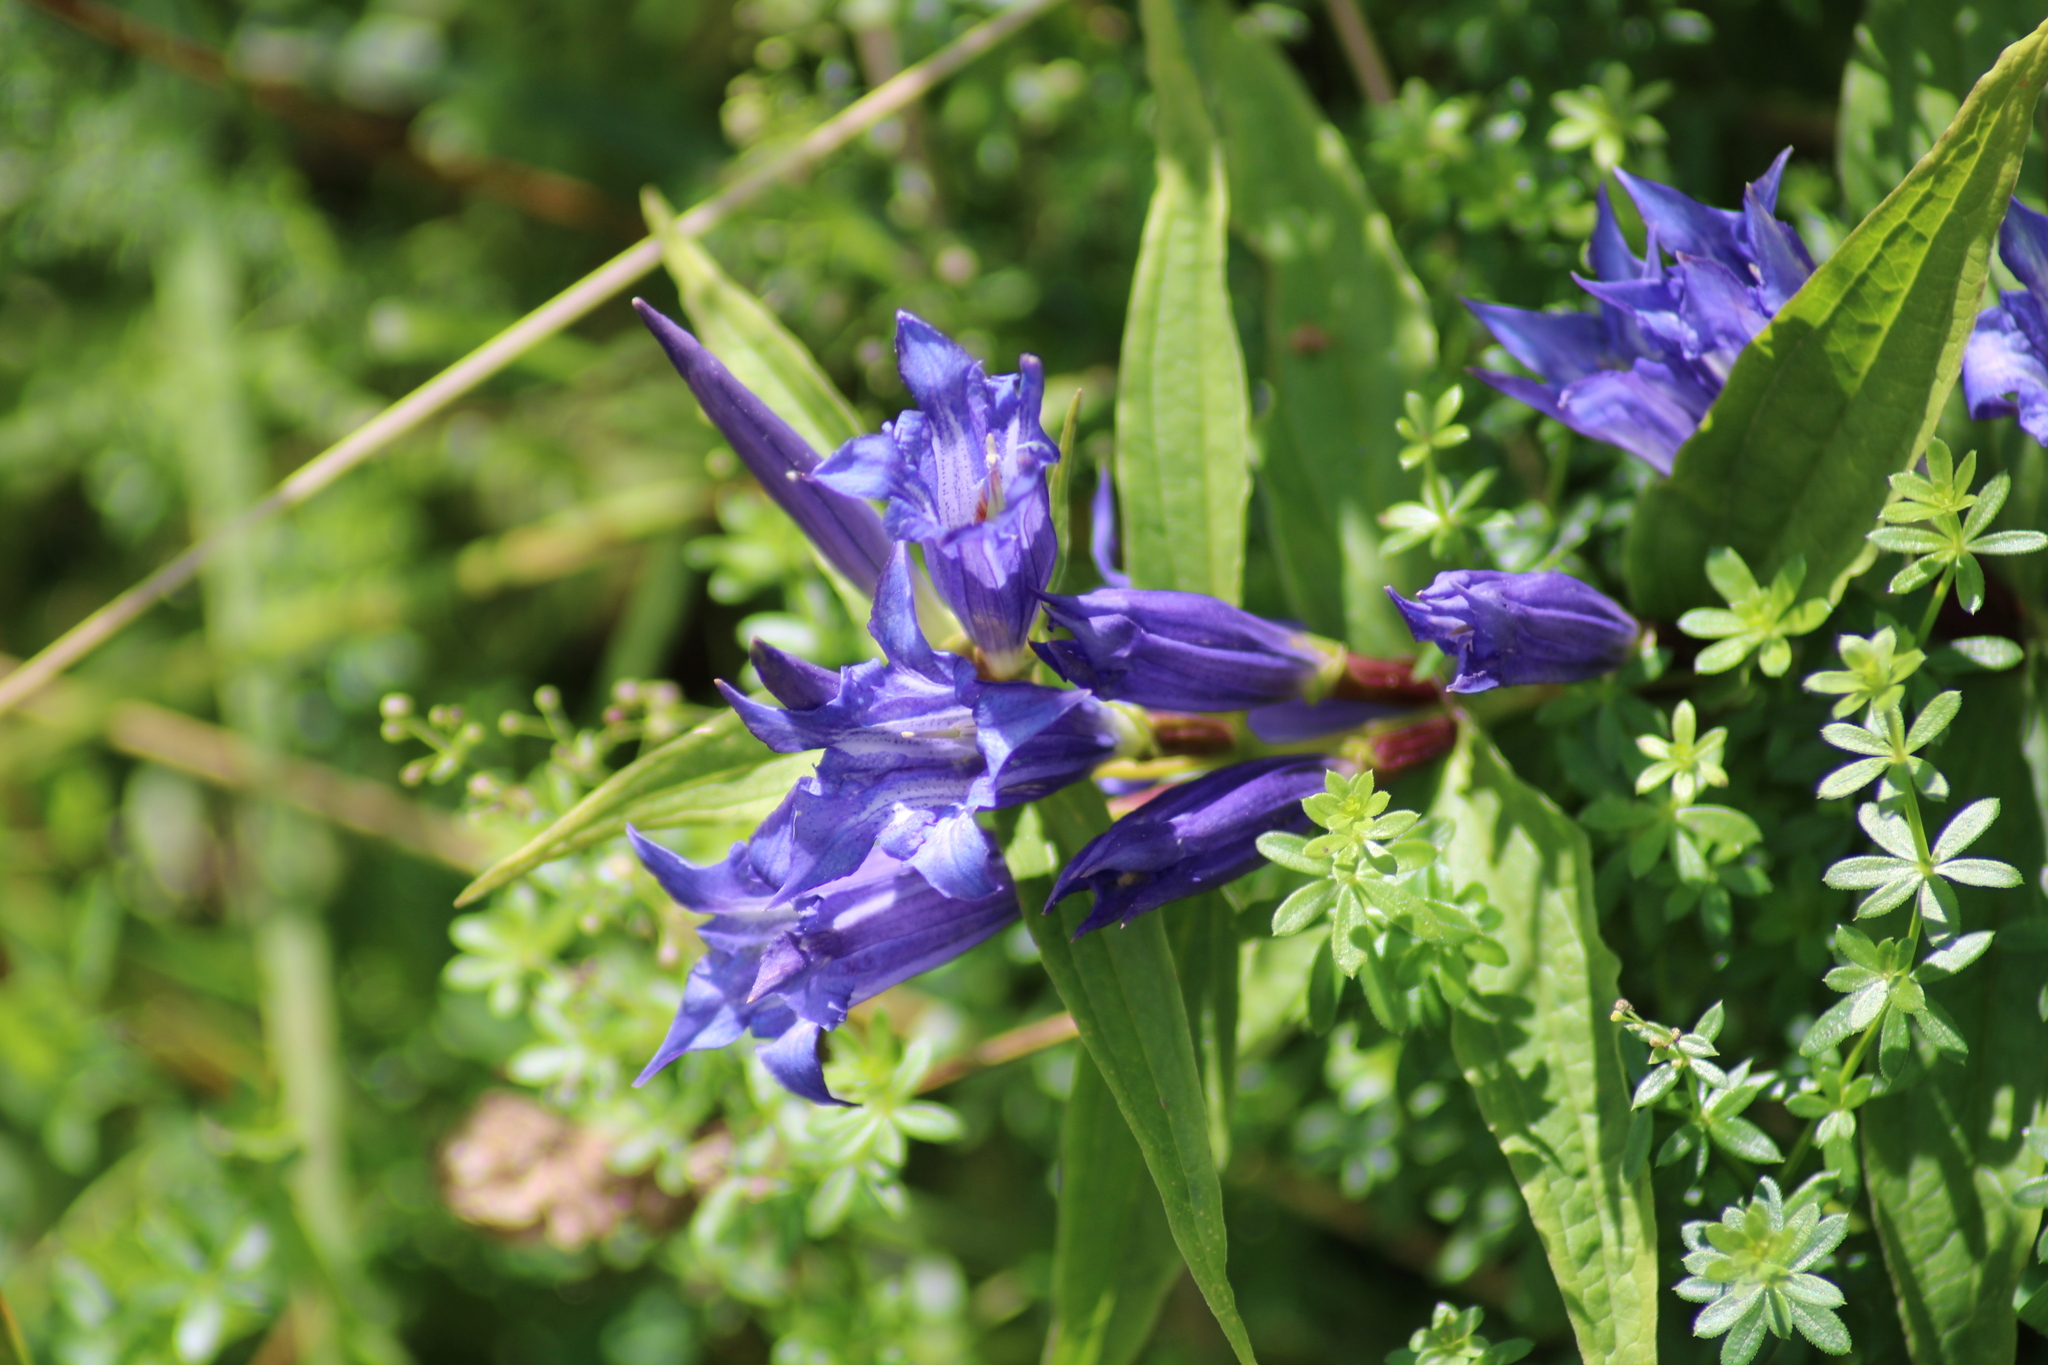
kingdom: Plantae
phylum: Tracheophyta
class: Magnoliopsida
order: Gentianales
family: Gentianaceae
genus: Gentiana
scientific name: Gentiana asclepiadea
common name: Willow gentian
